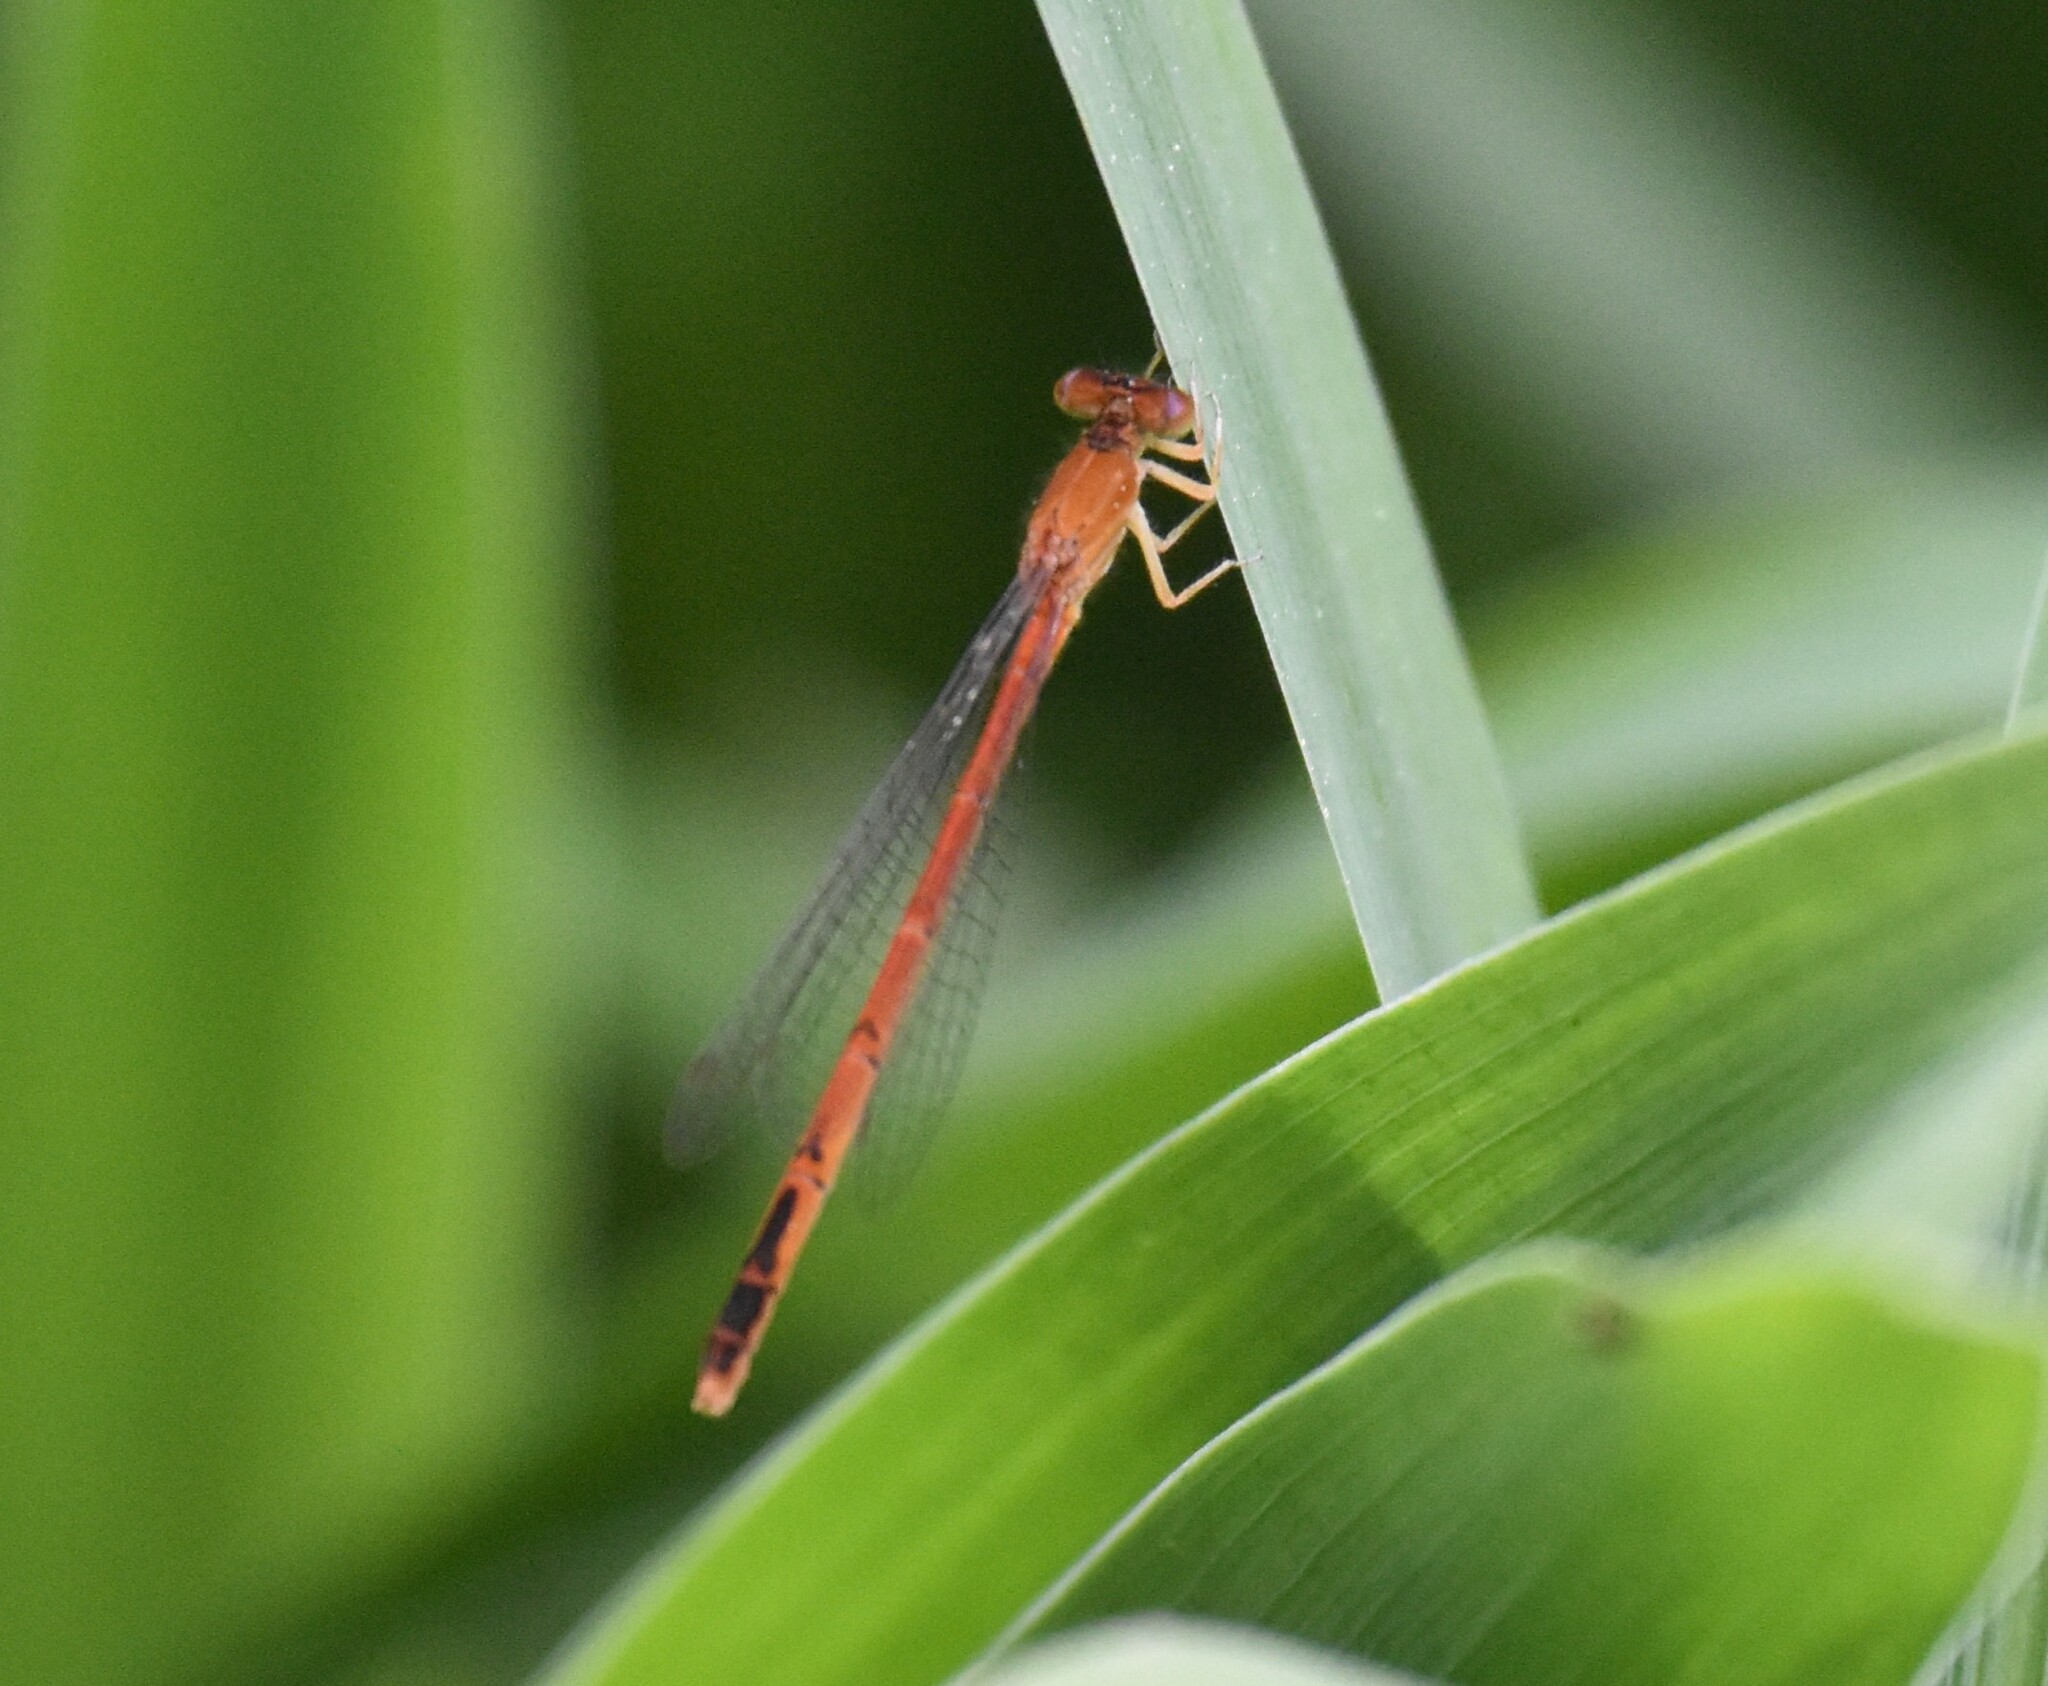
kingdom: Animalia
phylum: Arthropoda
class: Insecta
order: Odonata
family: Coenagrionidae
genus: Amphiagrion
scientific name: Amphiagrion saucium
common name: Eastern red damsel
